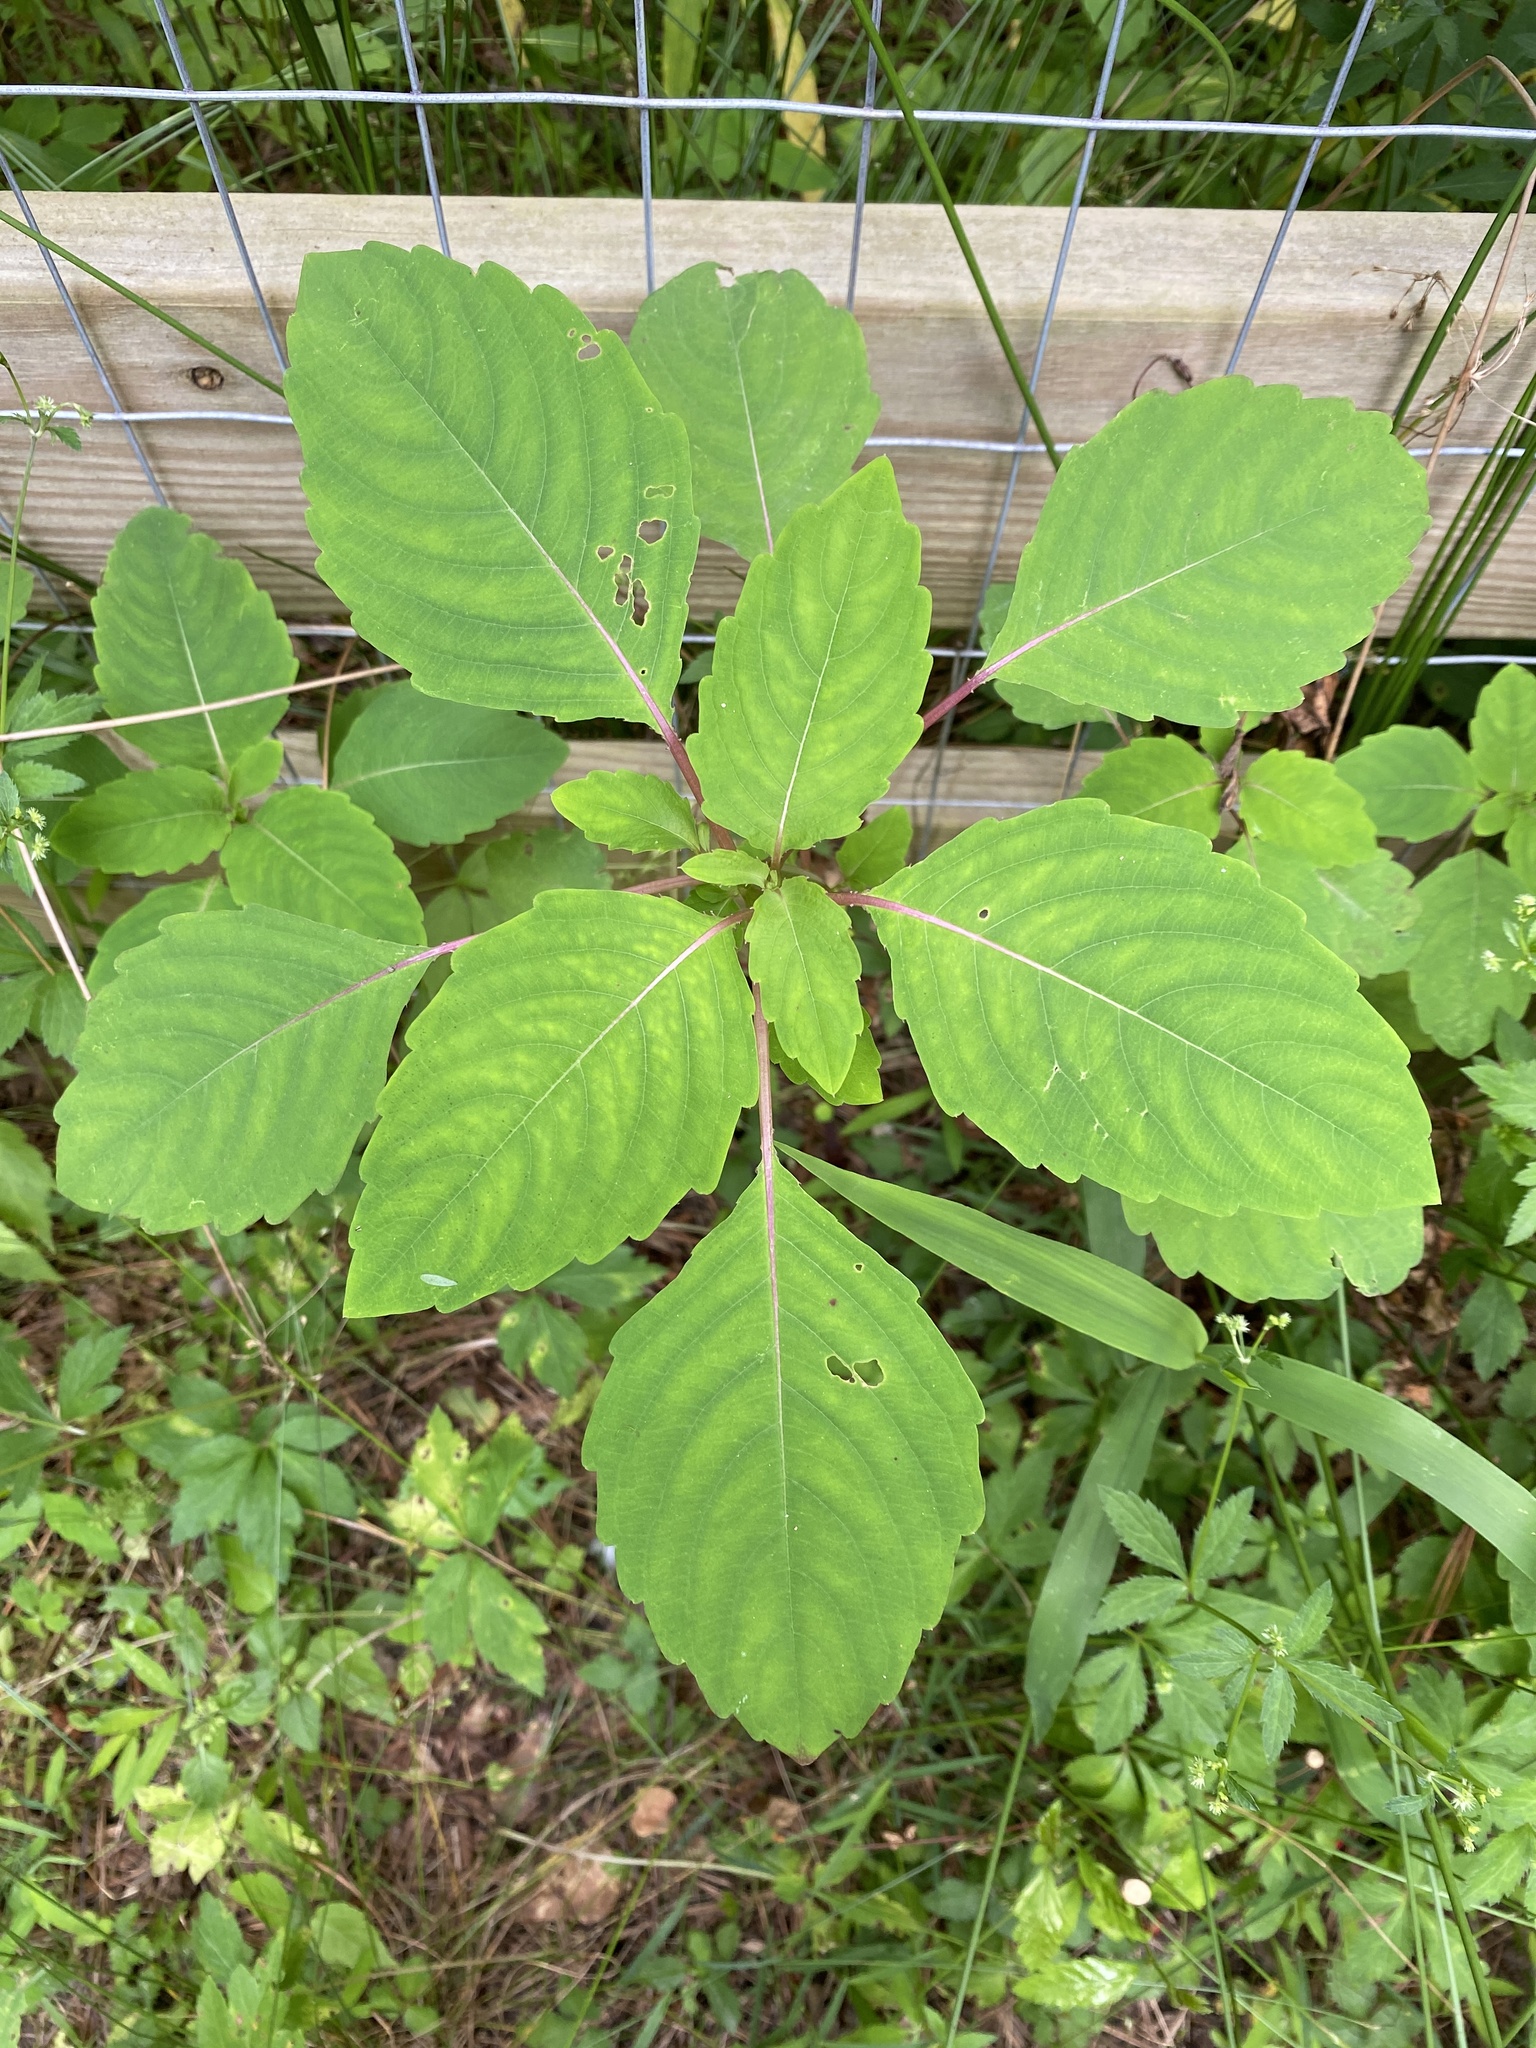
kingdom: Plantae
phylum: Tracheophyta
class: Magnoliopsida
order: Ericales
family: Balsaminaceae
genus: Impatiens
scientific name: Impatiens capensis
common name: Orange balsam
